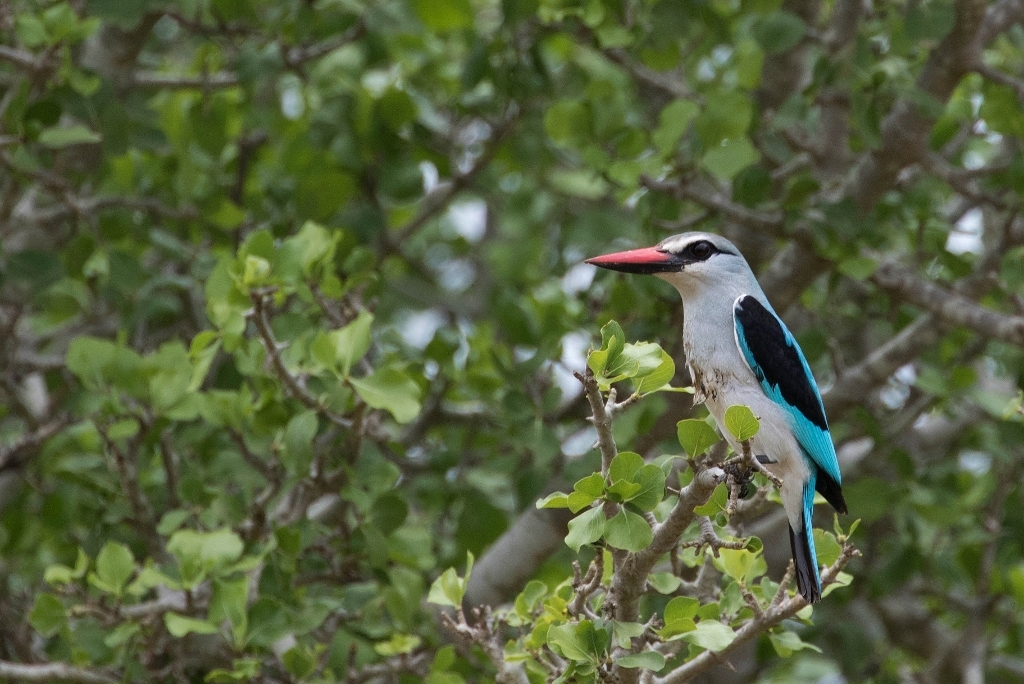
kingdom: Animalia
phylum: Chordata
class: Aves
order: Coraciiformes
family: Alcedinidae
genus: Halcyon
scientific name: Halcyon senegalensis
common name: Woodland kingfisher
